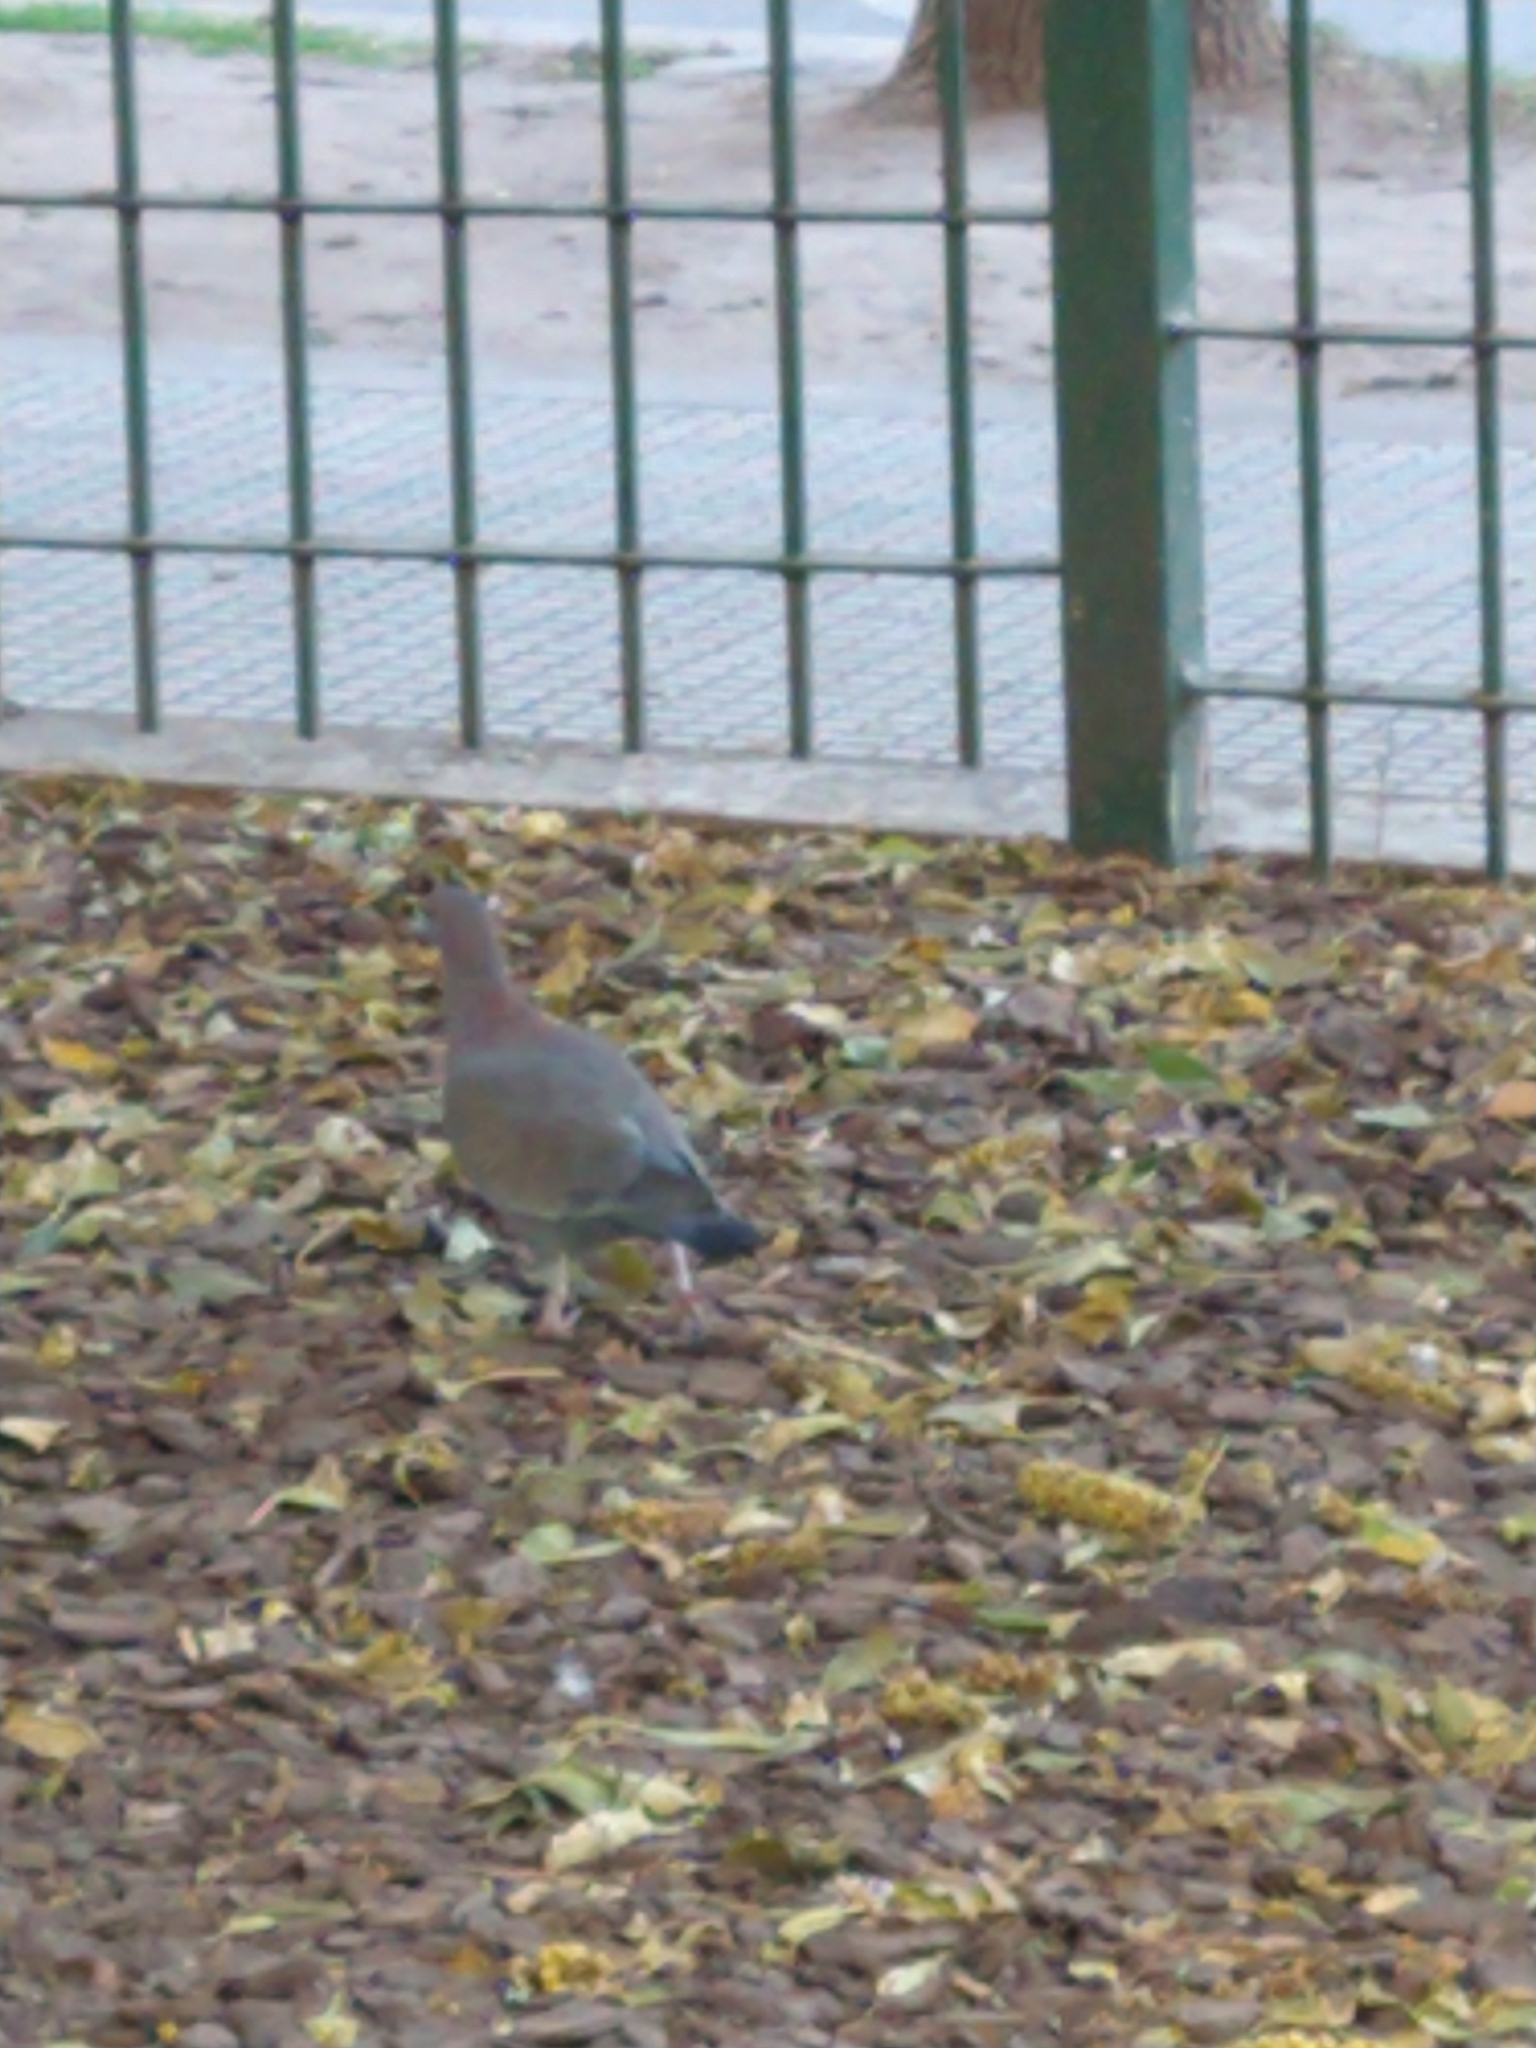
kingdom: Animalia
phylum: Chordata
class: Aves
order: Columbiformes
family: Columbidae
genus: Patagioenas
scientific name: Patagioenas picazuro
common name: Picazuro pigeon
